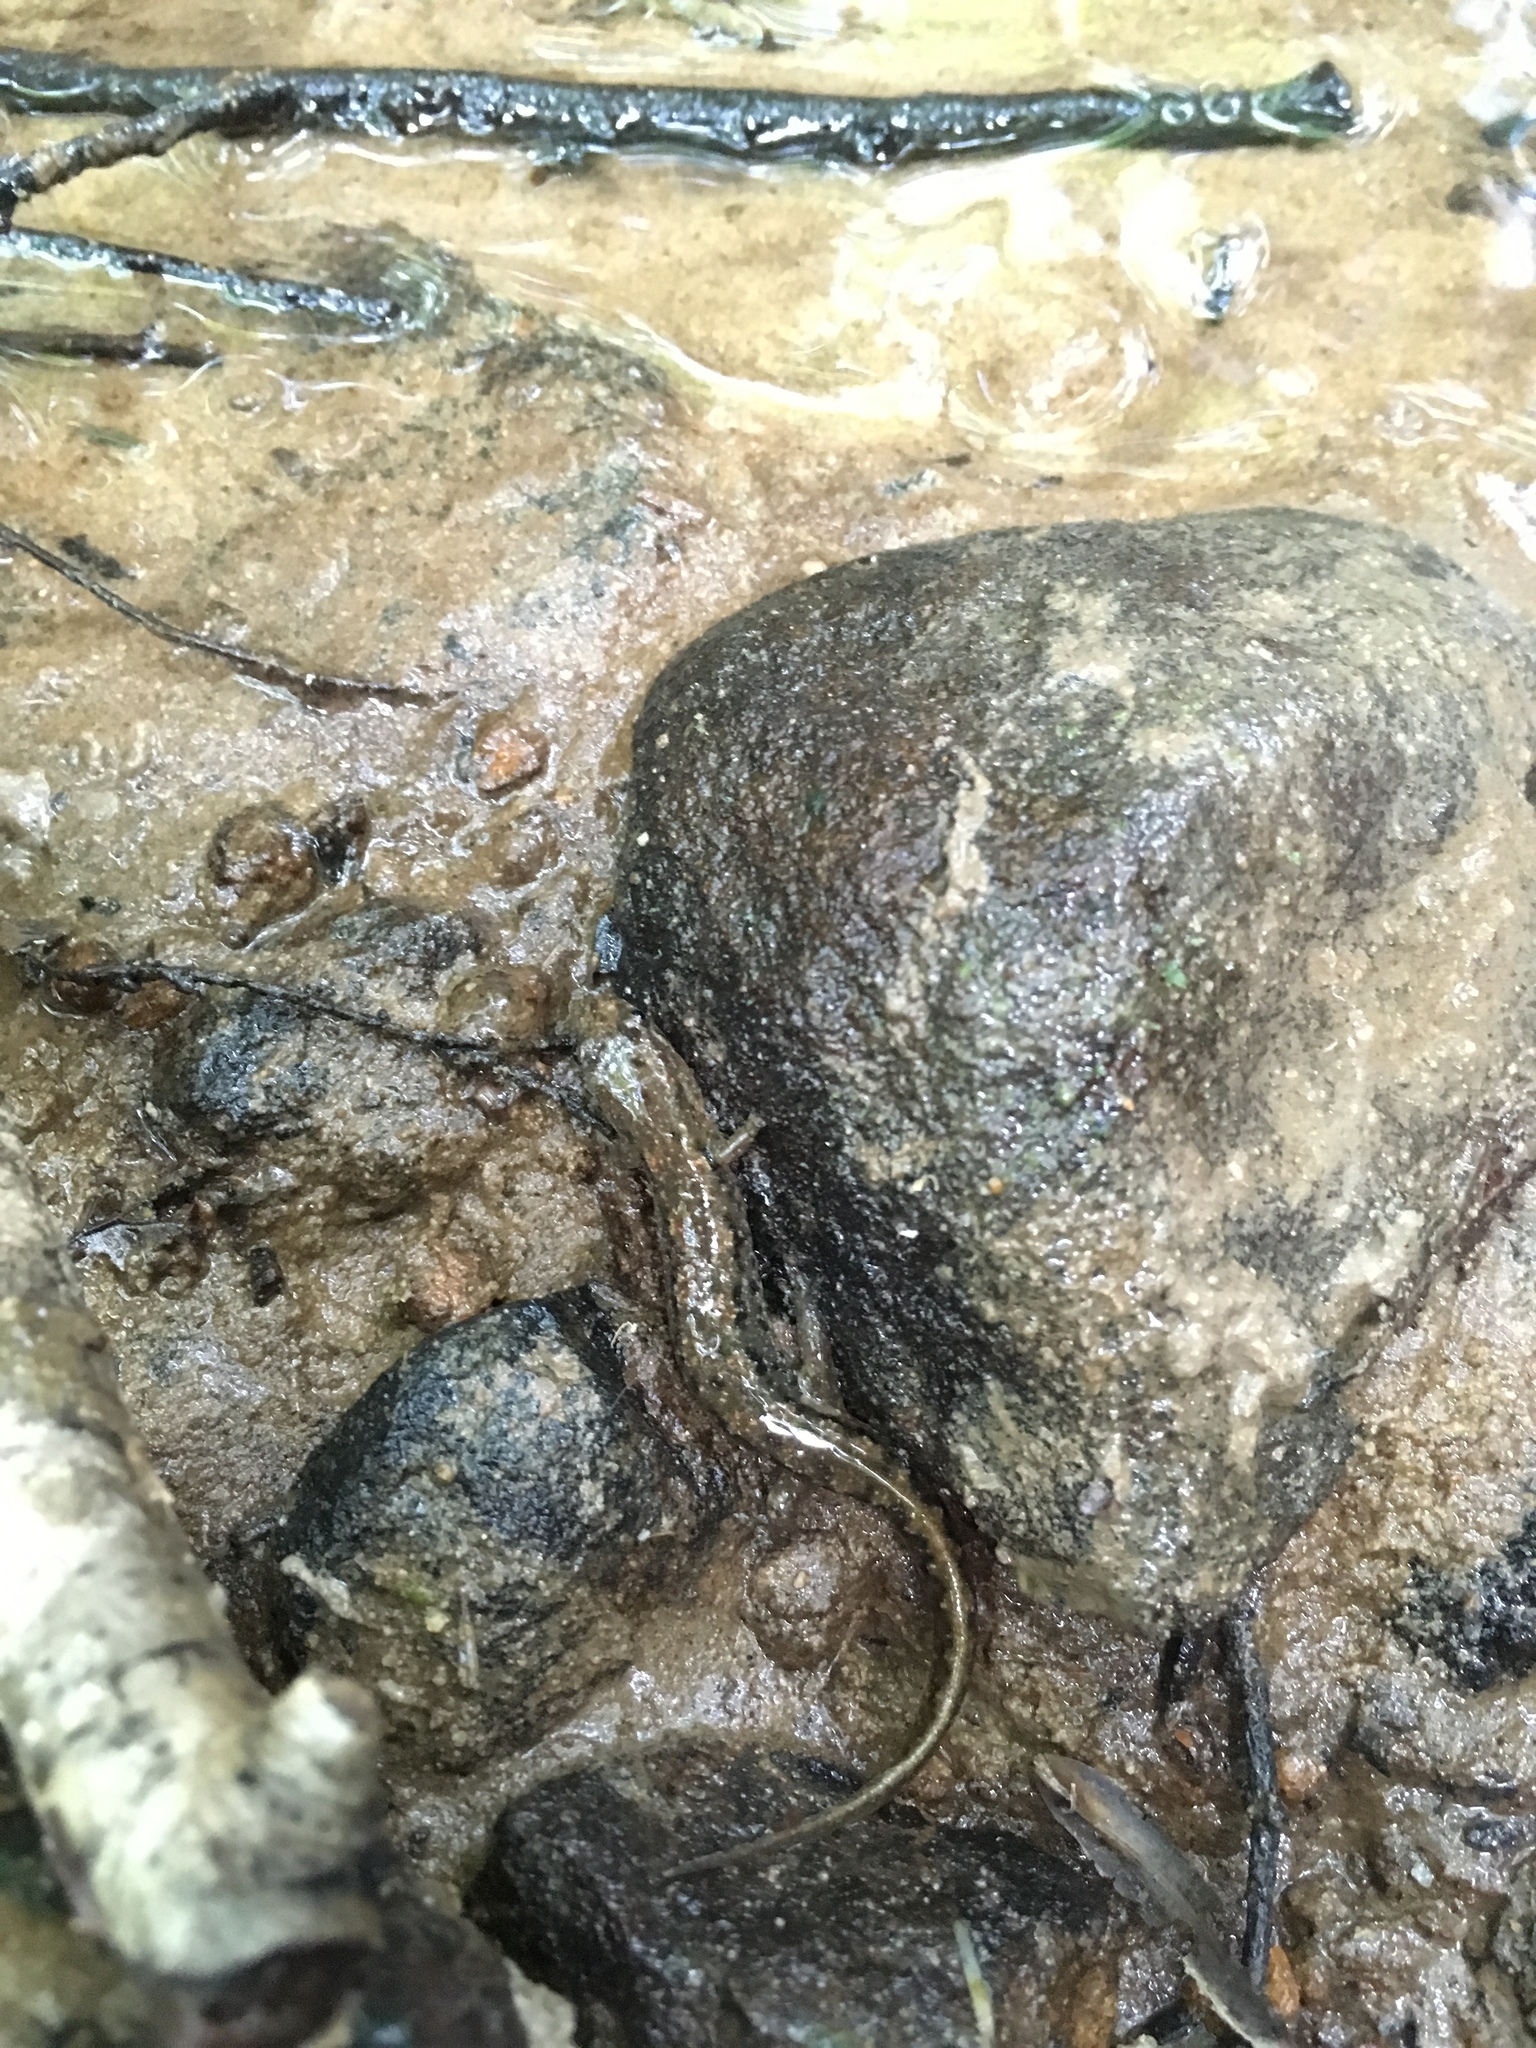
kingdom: Animalia
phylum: Chordata
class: Amphibia
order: Caudata
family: Plethodontidae
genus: Desmognathus
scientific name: Desmognathus fuscus
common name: Northern dusky salamander
